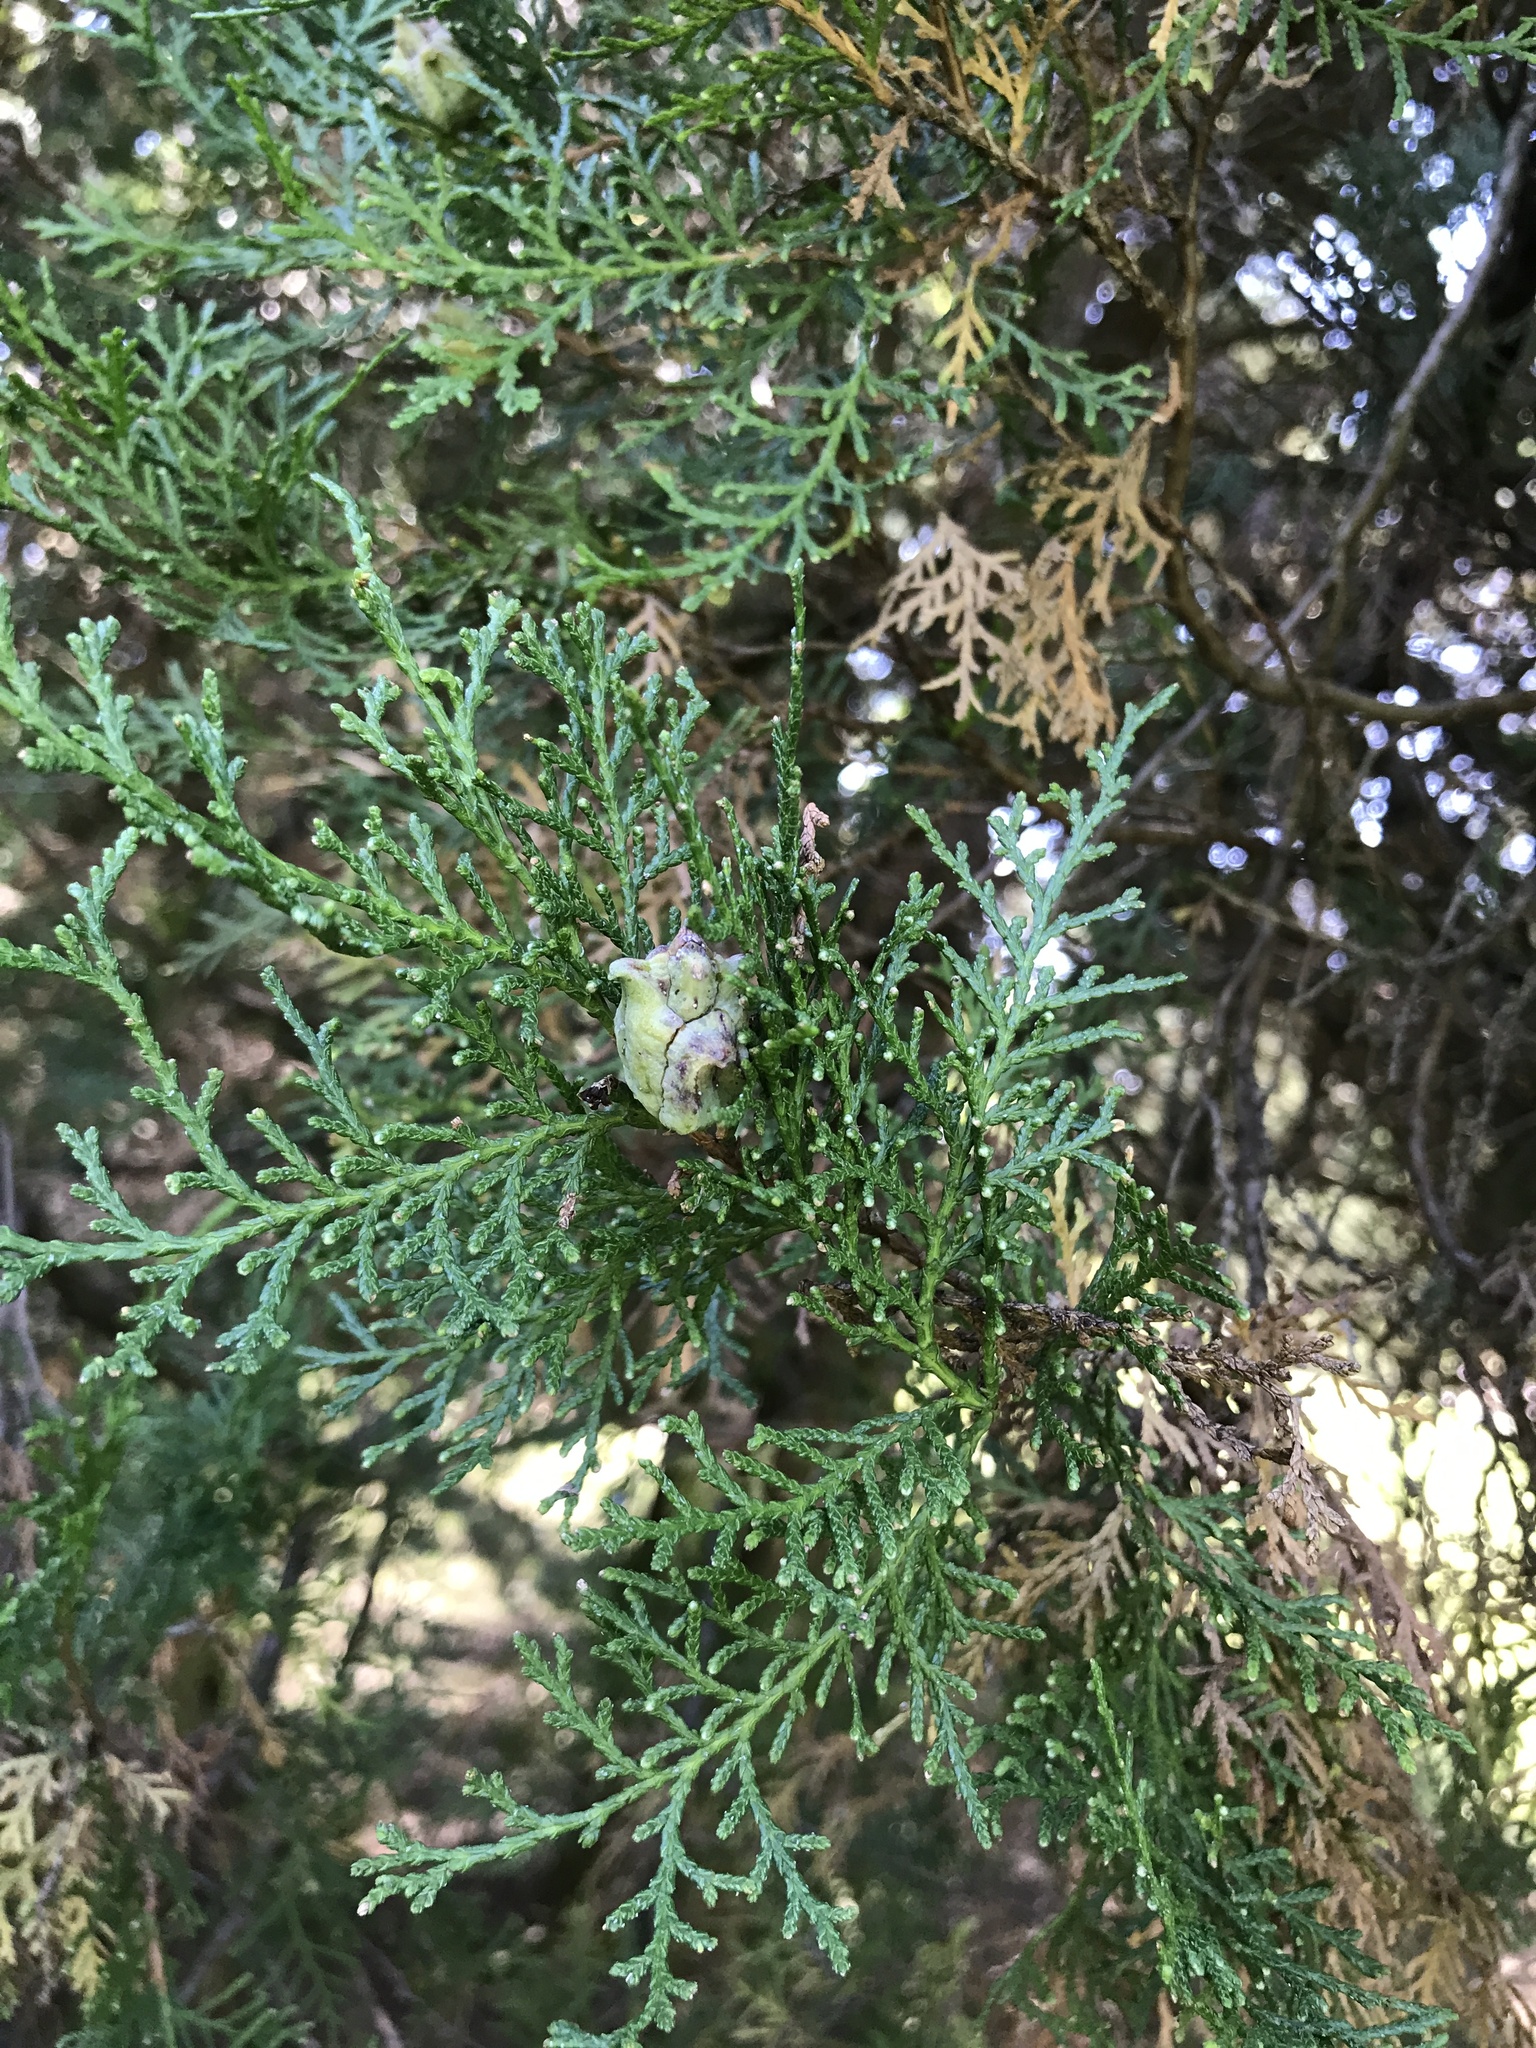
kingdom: Plantae
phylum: Tracheophyta
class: Pinopsida
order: Pinales
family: Cupressaceae
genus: Juniperus
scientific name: Juniperus virginiana
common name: Red juniper
